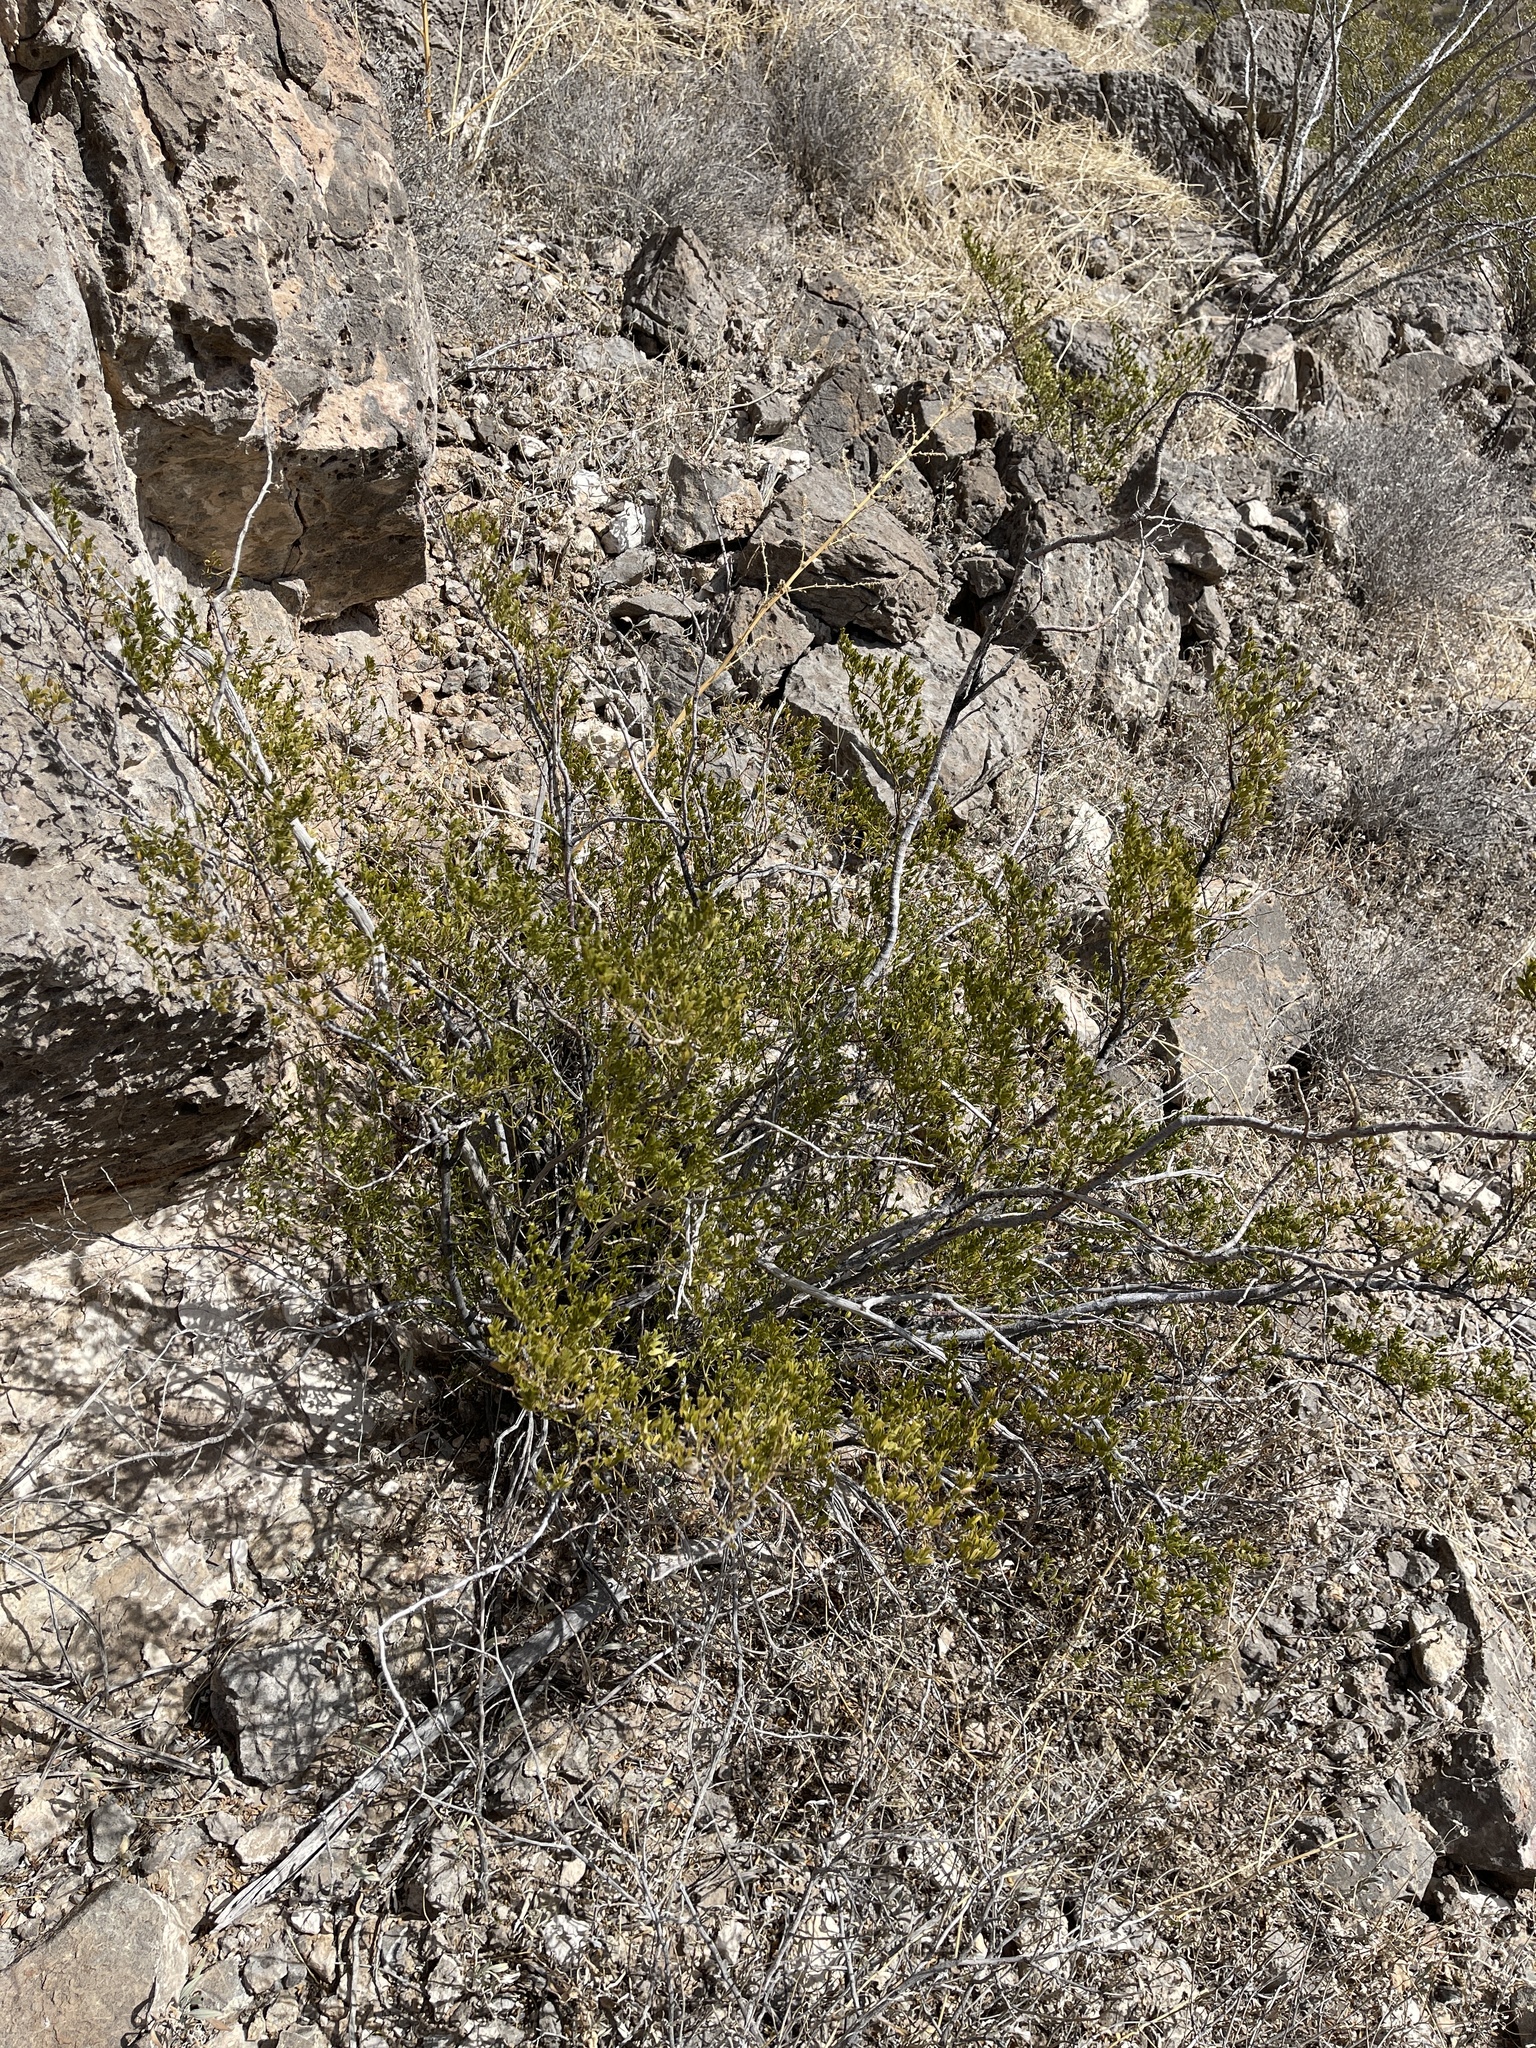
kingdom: Plantae
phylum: Tracheophyta
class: Magnoliopsida
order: Zygophyllales
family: Zygophyllaceae
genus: Larrea
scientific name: Larrea tridentata
